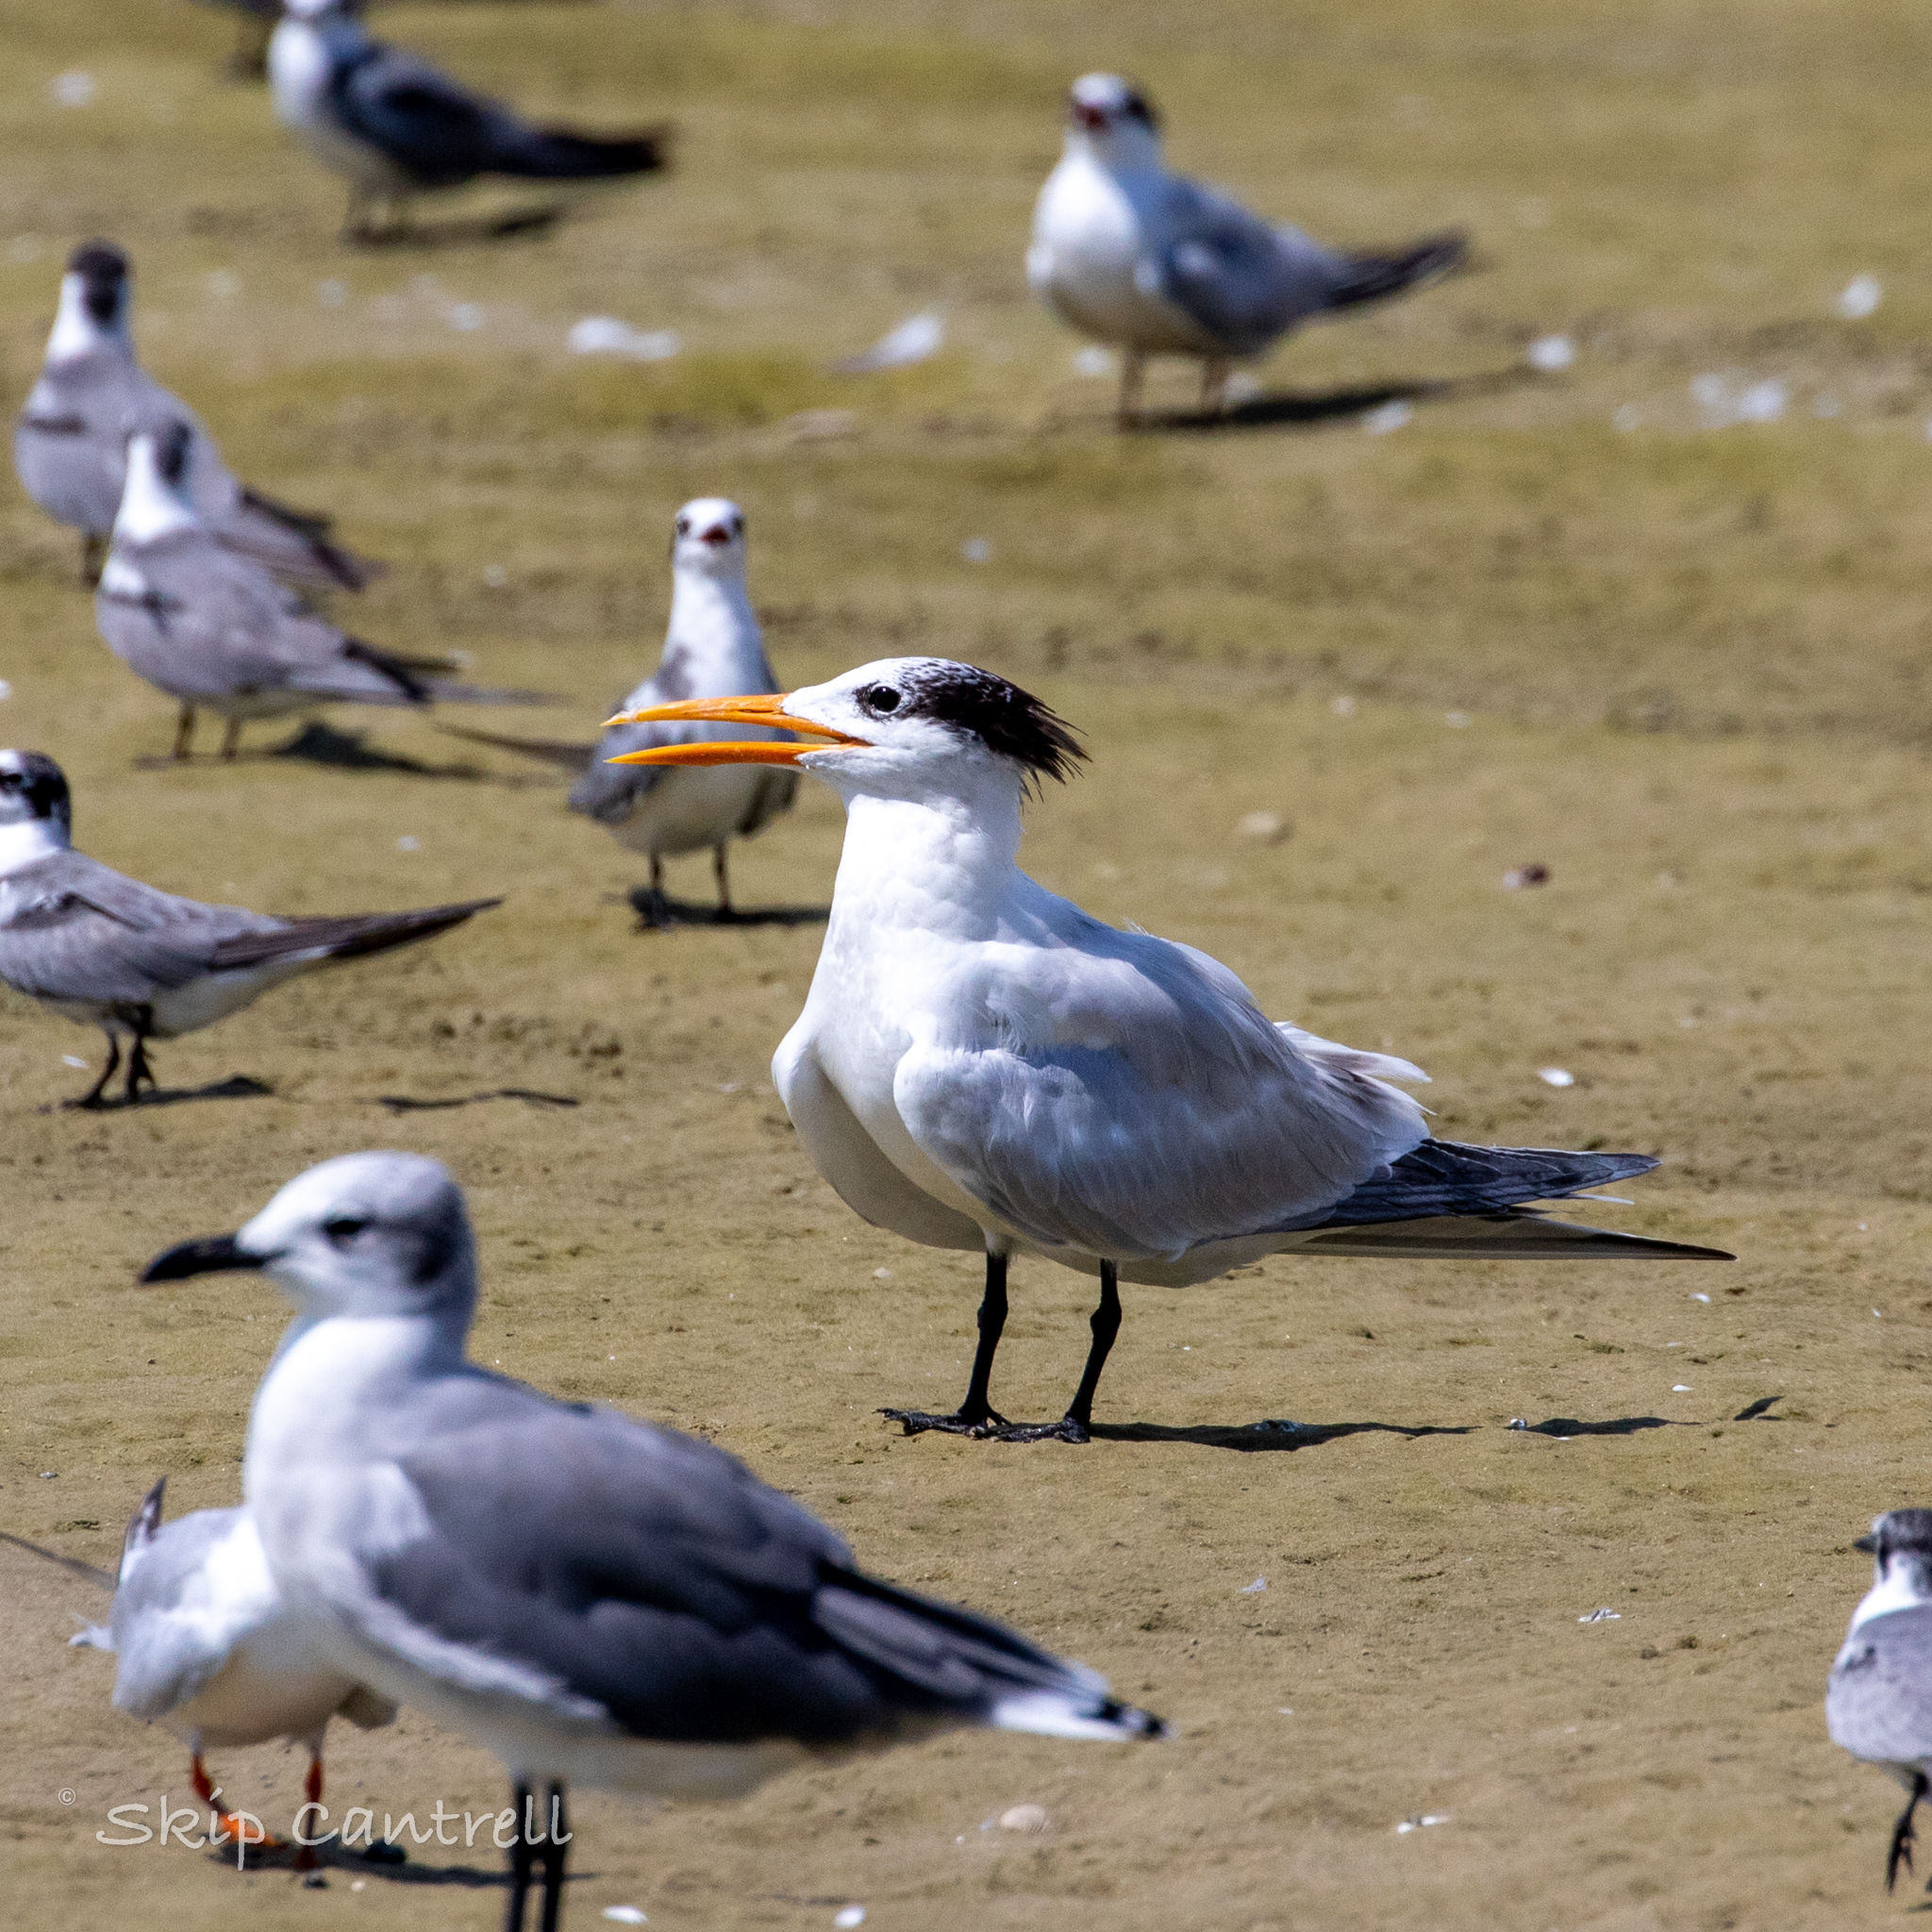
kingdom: Animalia
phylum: Chordata
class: Aves
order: Charadriiformes
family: Laridae
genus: Thalasseus
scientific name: Thalasseus maximus
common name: Royal tern
